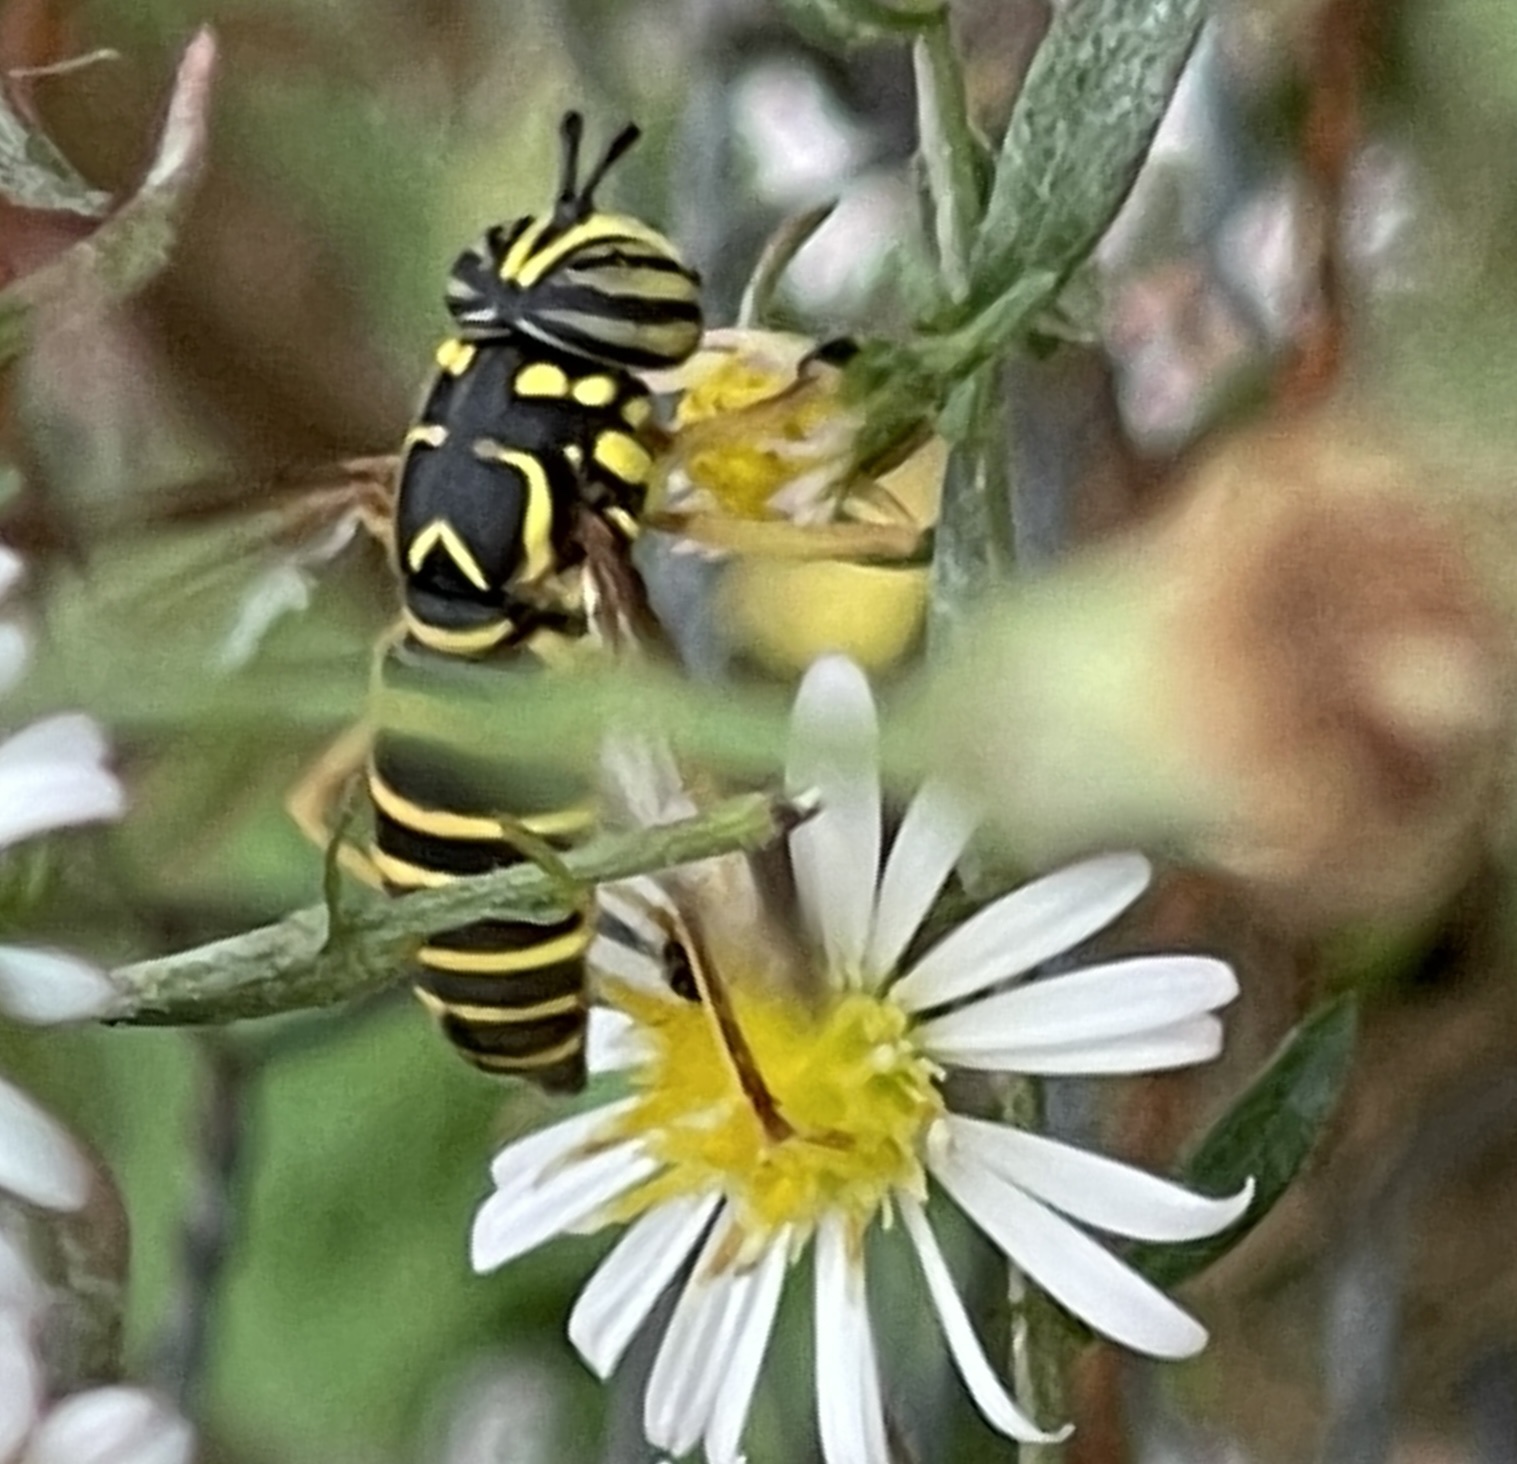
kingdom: Animalia
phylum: Arthropoda
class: Insecta
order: Diptera
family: Syrphidae
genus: Spilomyia
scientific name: Spilomyia longicornis
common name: Eastern hornet fly
